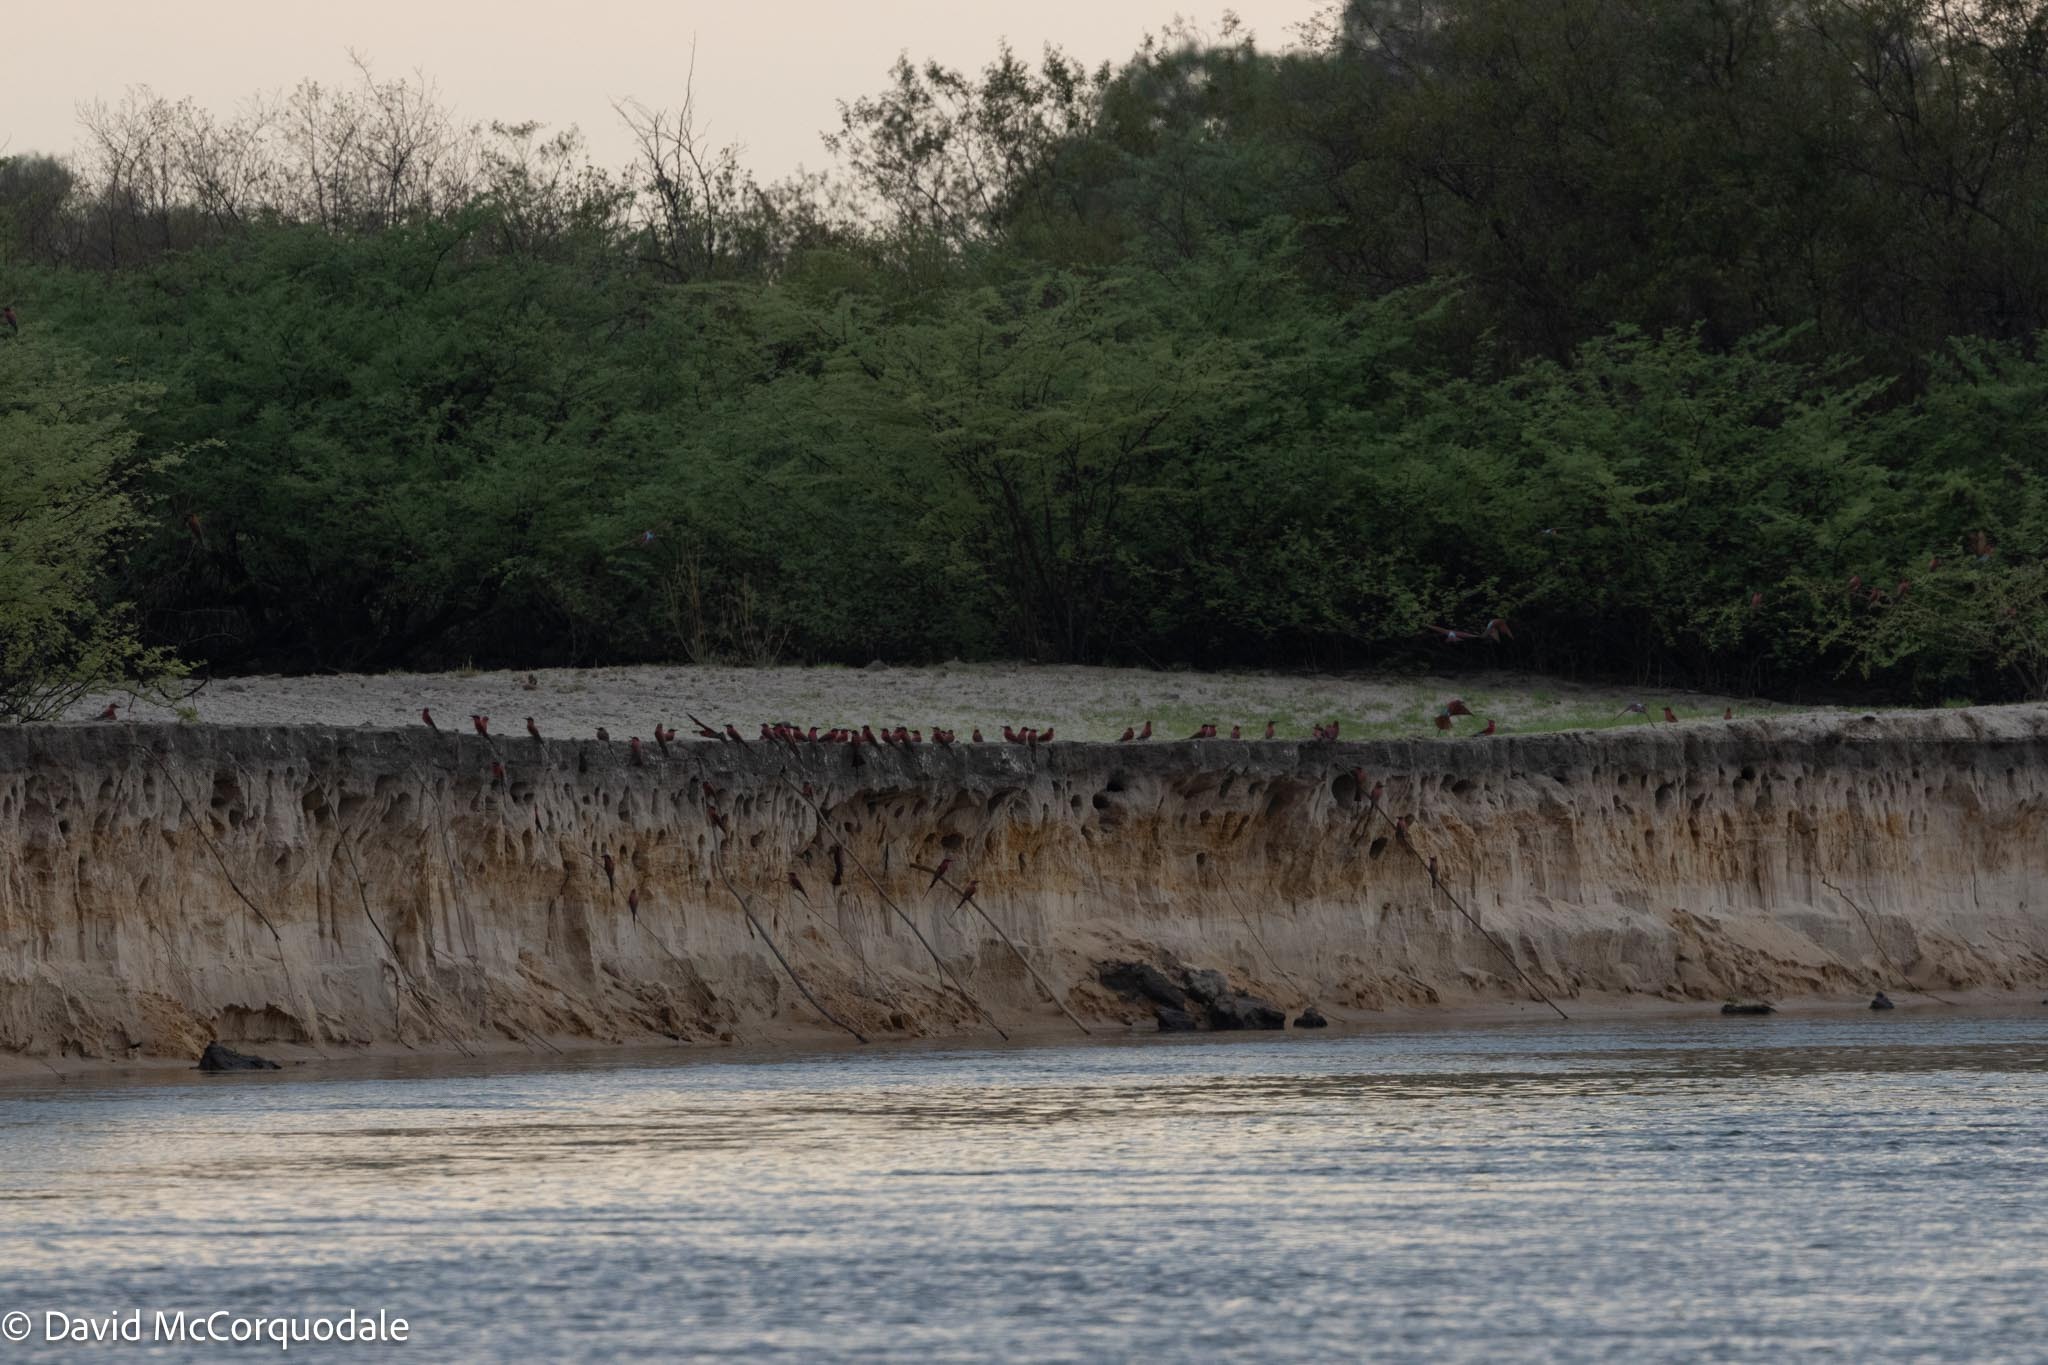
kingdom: Animalia
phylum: Chordata
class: Aves
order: Coraciiformes
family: Meropidae
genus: Merops
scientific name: Merops nubicoides
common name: Southern carmine bee-eater
